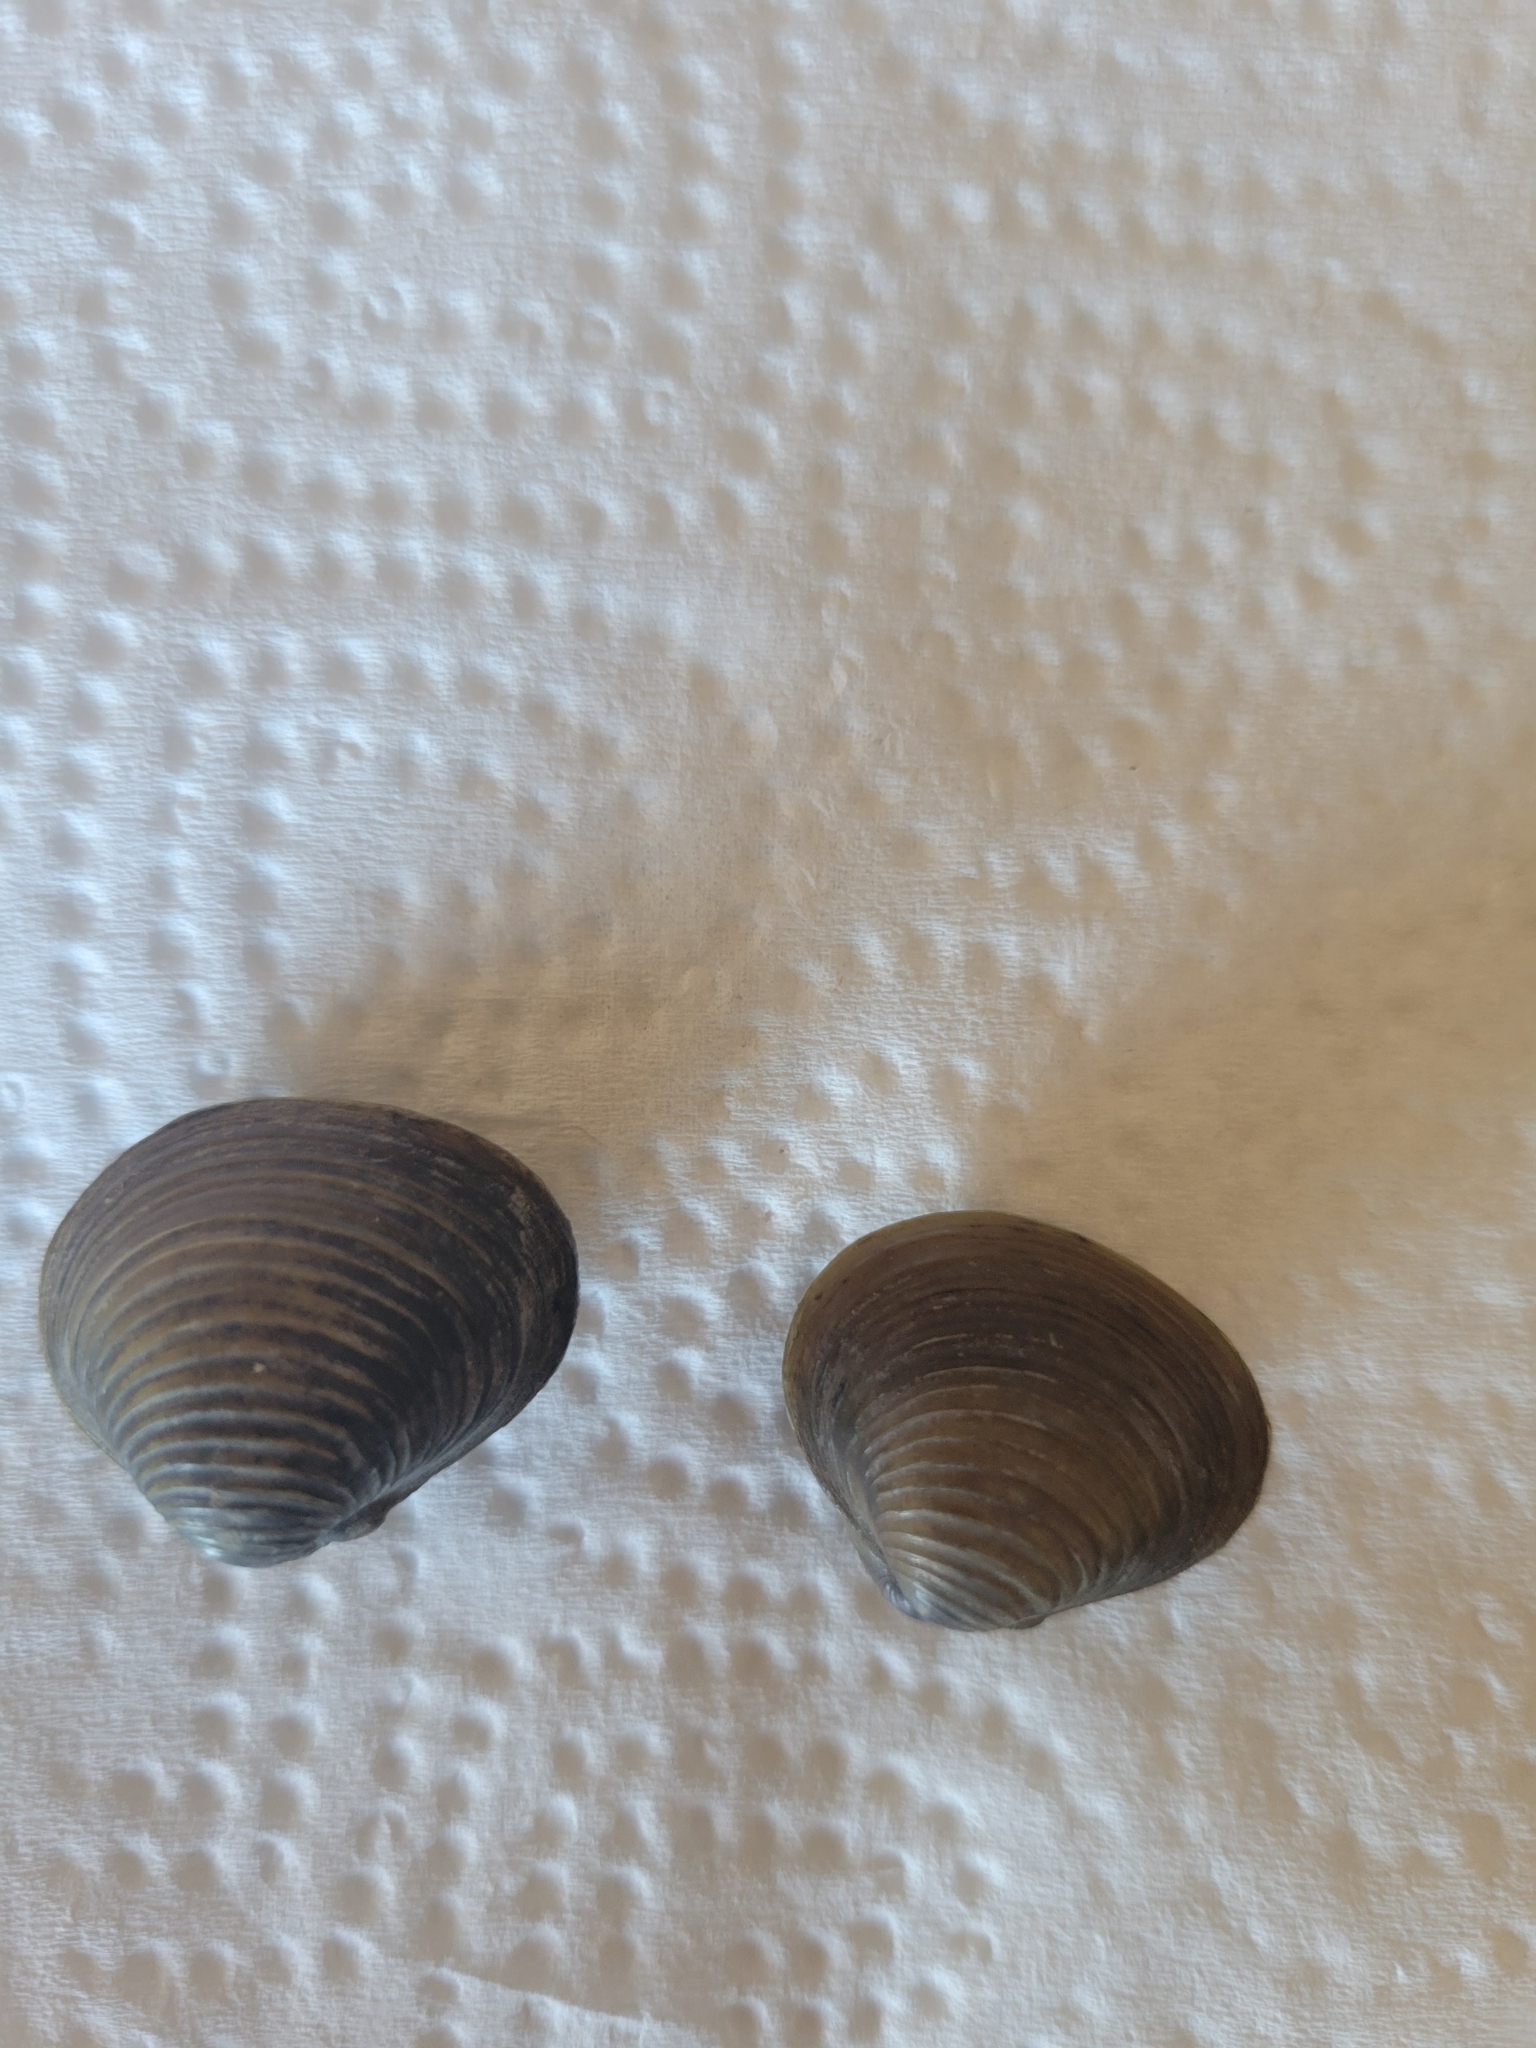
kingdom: Animalia
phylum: Mollusca
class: Bivalvia
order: Venerida
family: Cyrenidae
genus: Corbicula
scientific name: Corbicula fluminea
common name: Asian clam
